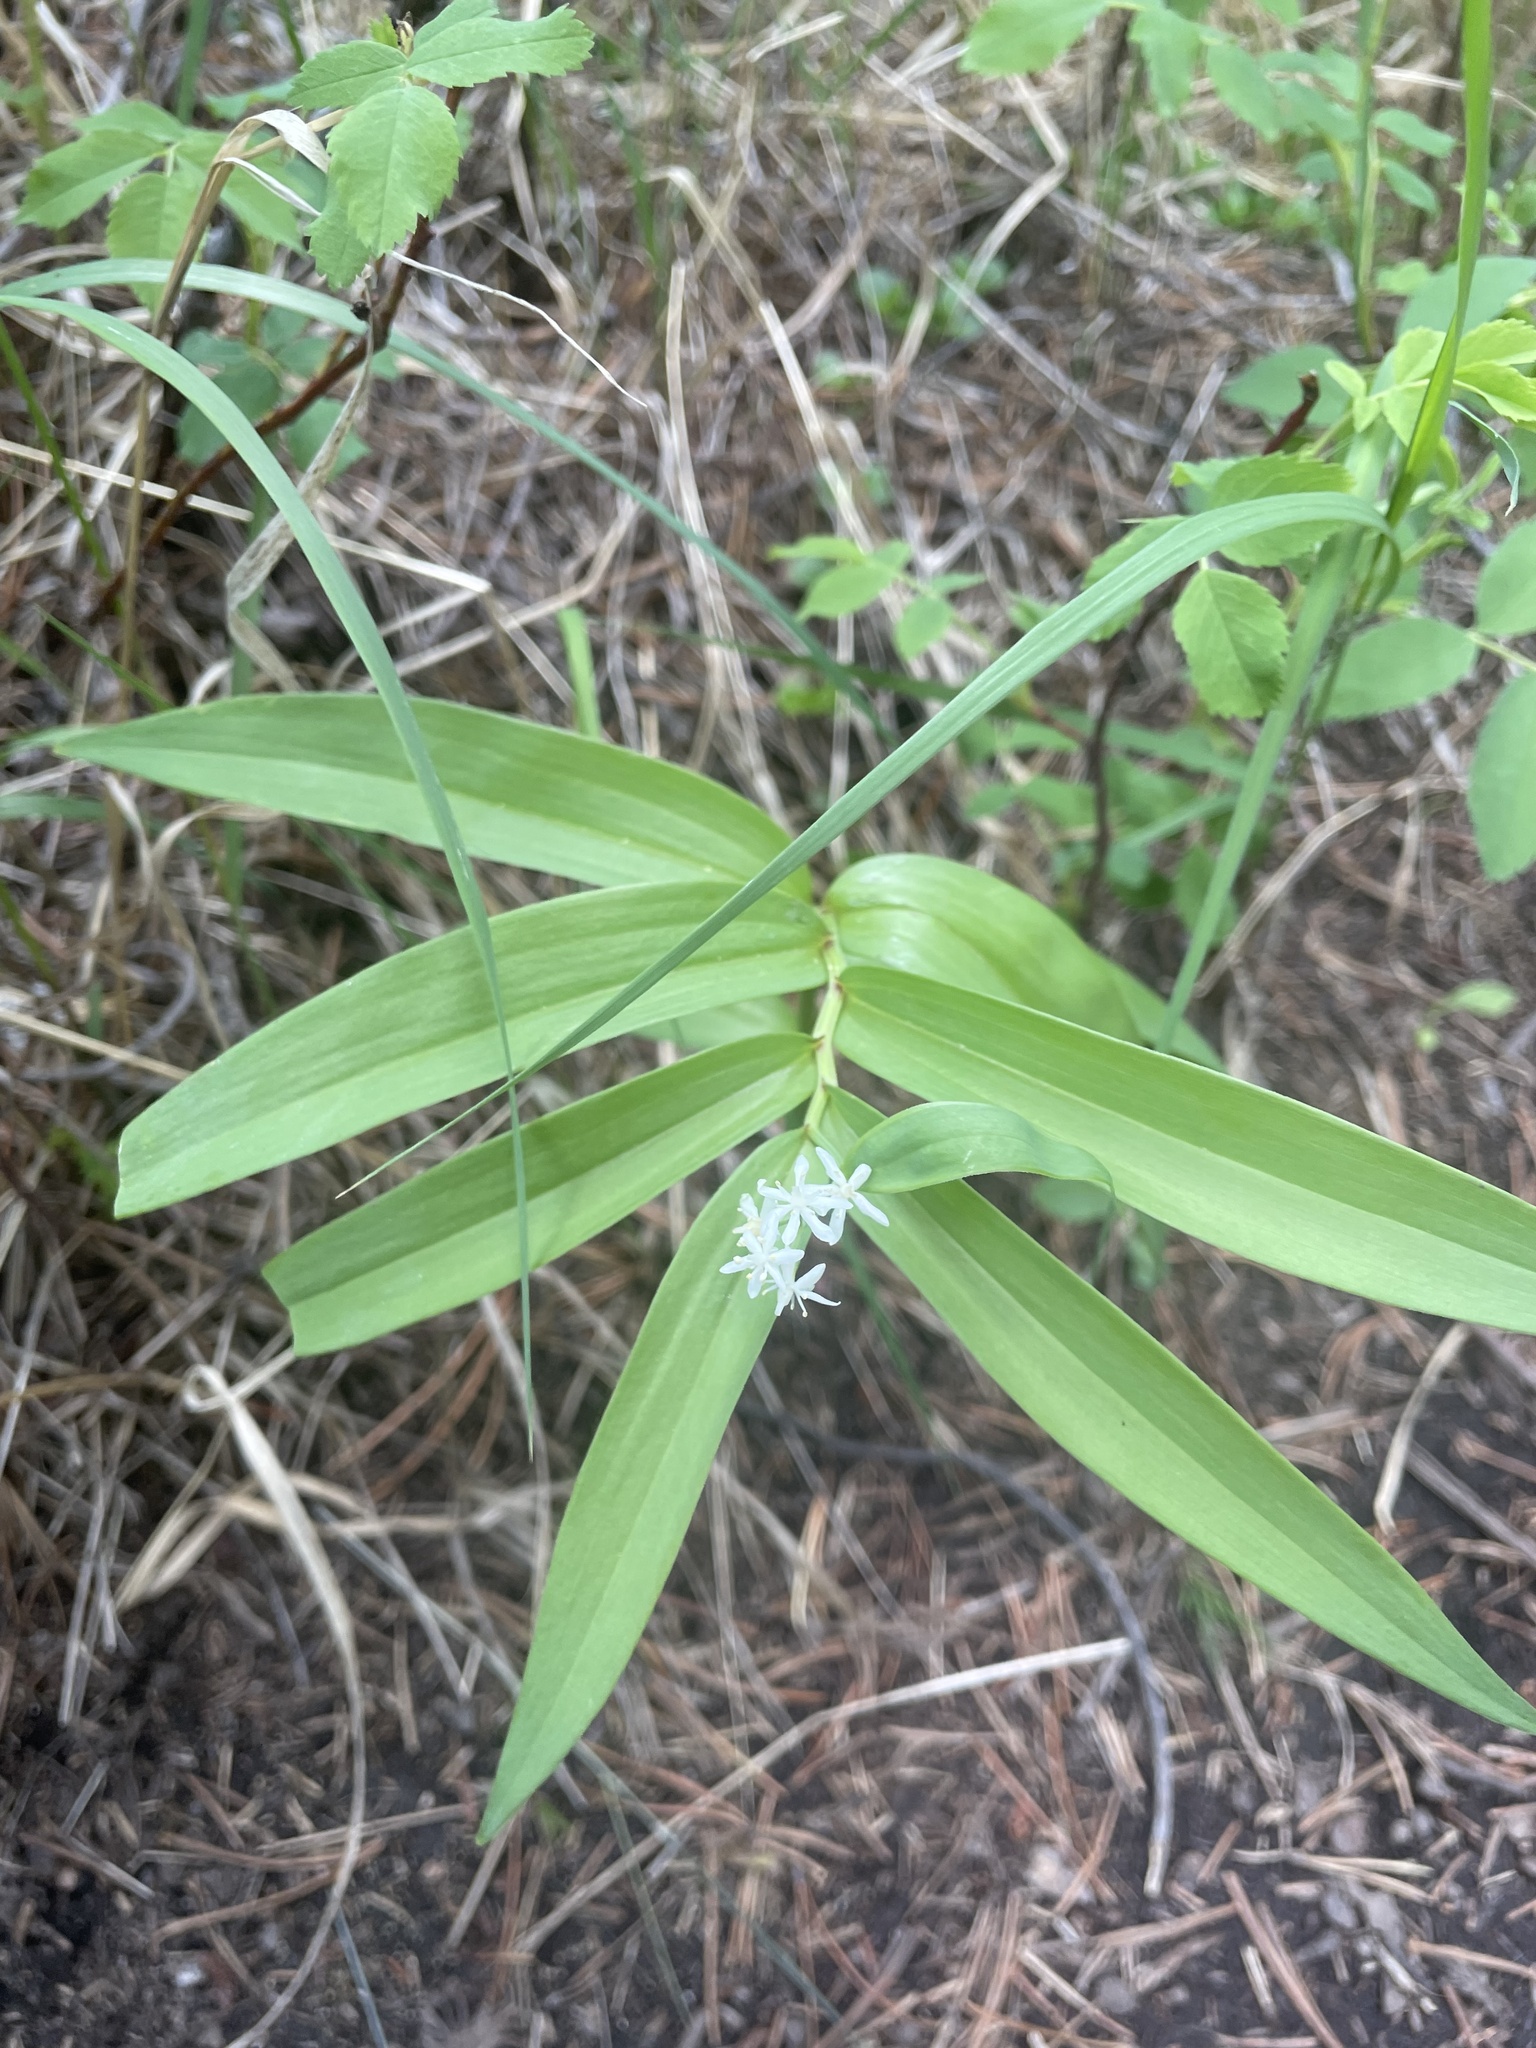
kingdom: Plantae
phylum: Tracheophyta
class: Liliopsida
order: Asparagales
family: Asparagaceae
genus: Maianthemum
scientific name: Maianthemum stellatum
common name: Little false solomon's seal
